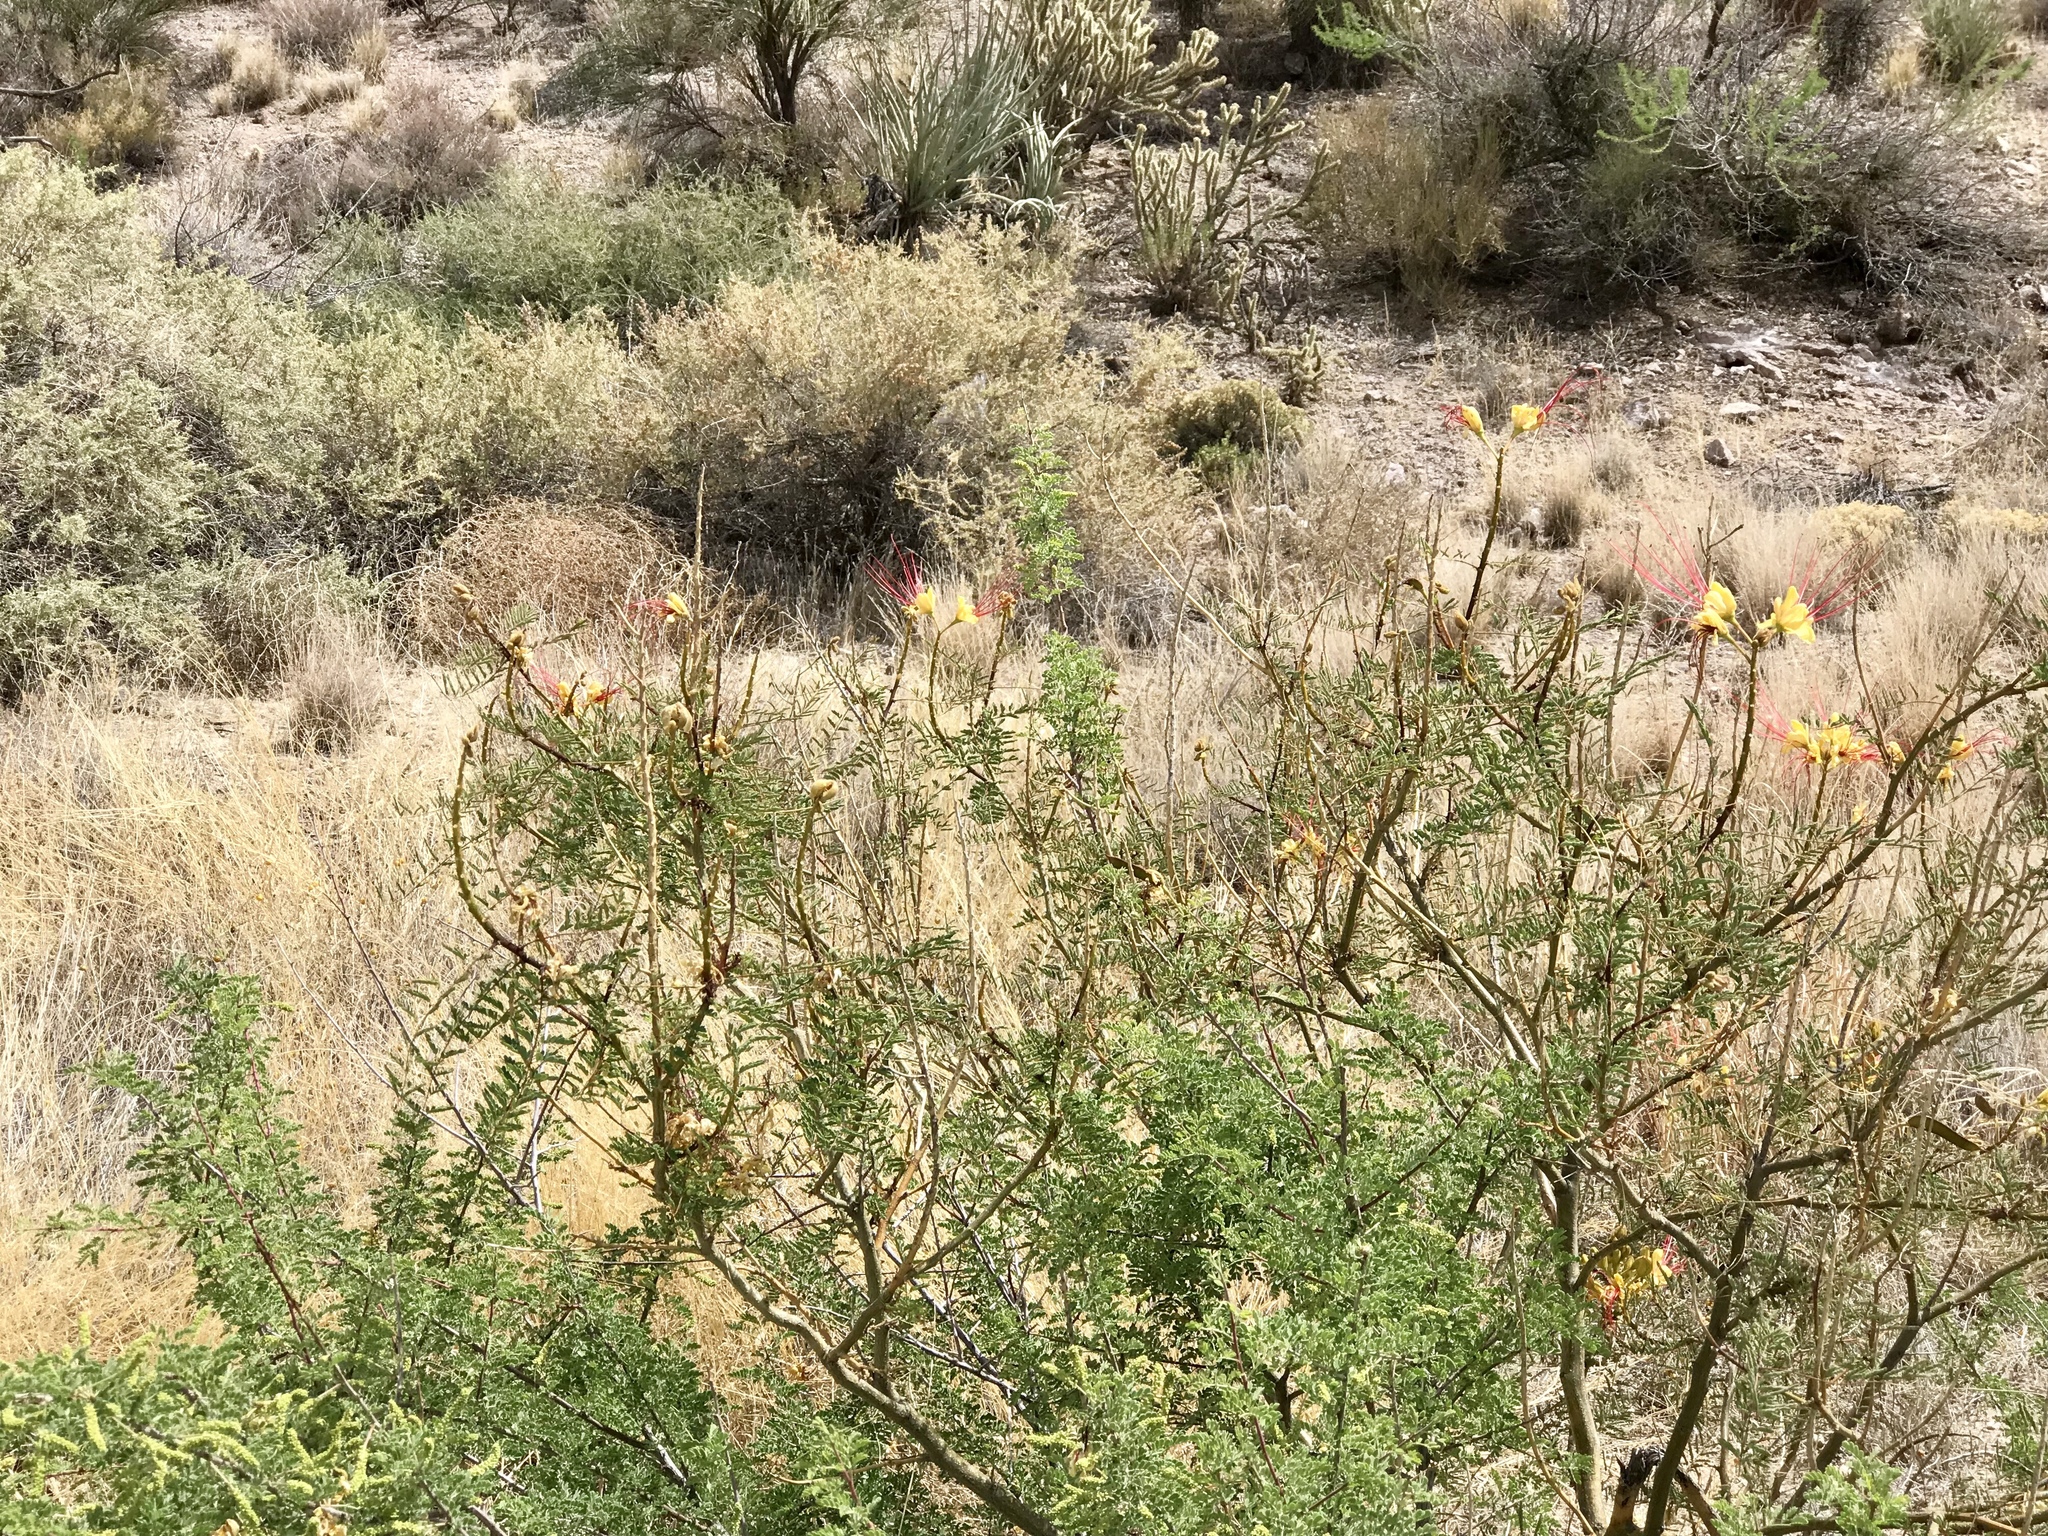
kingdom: Plantae
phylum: Tracheophyta
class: Magnoliopsida
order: Fabales
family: Fabaceae
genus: Erythrostemon
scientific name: Erythrostemon gilliesii
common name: Bird-of-paradise shrub
